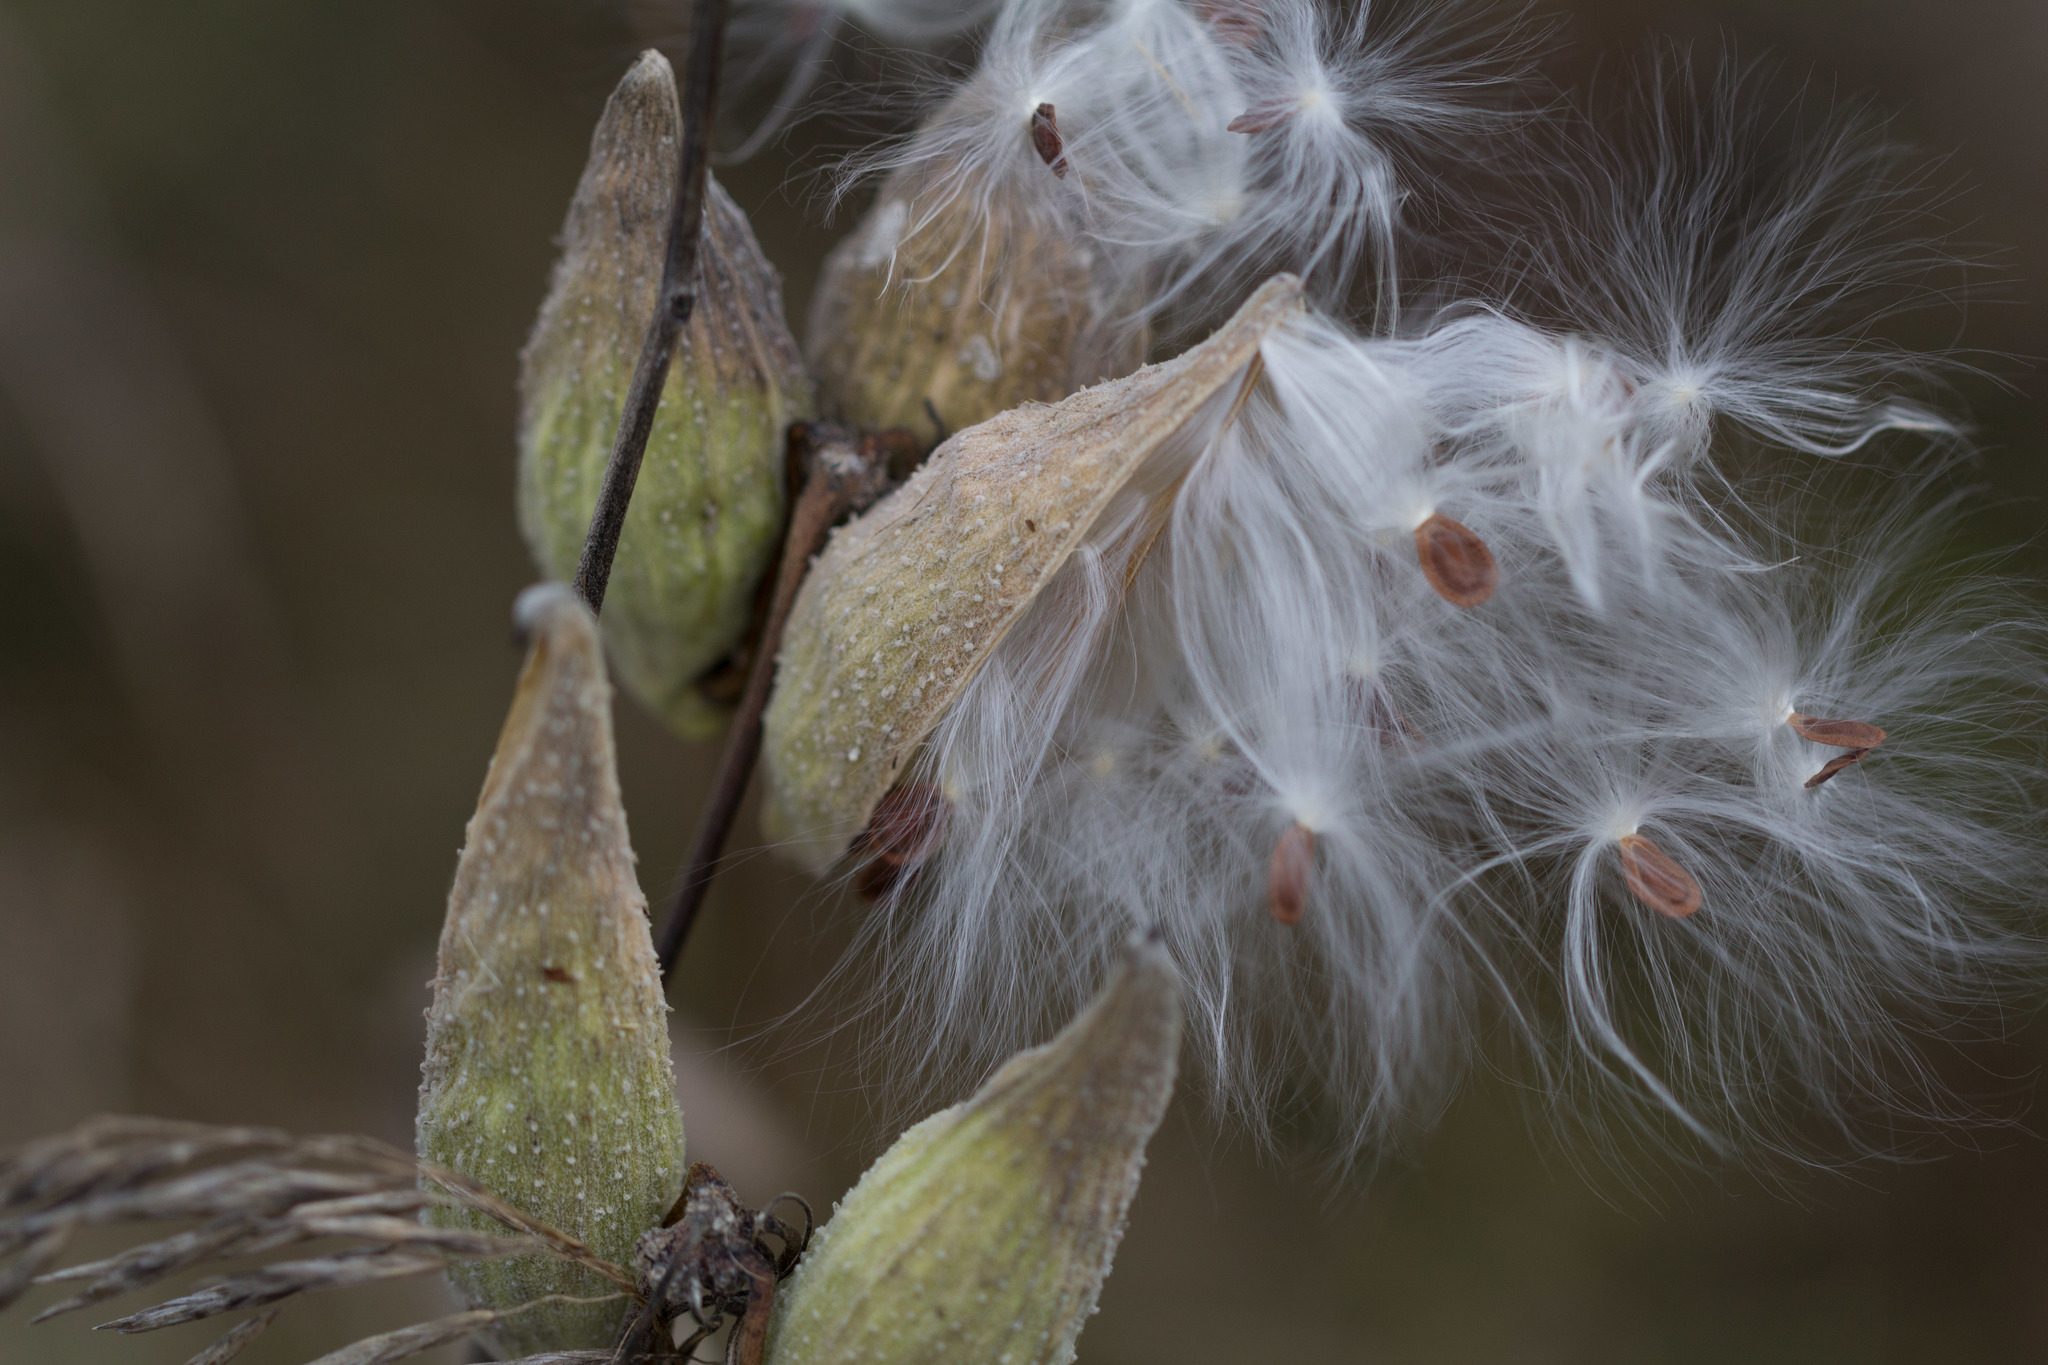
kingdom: Plantae
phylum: Tracheophyta
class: Magnoliopsida
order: Gentianales
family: Apocynaceae
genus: Asclepias
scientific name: Asclepias syriaca
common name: Common milkweed
